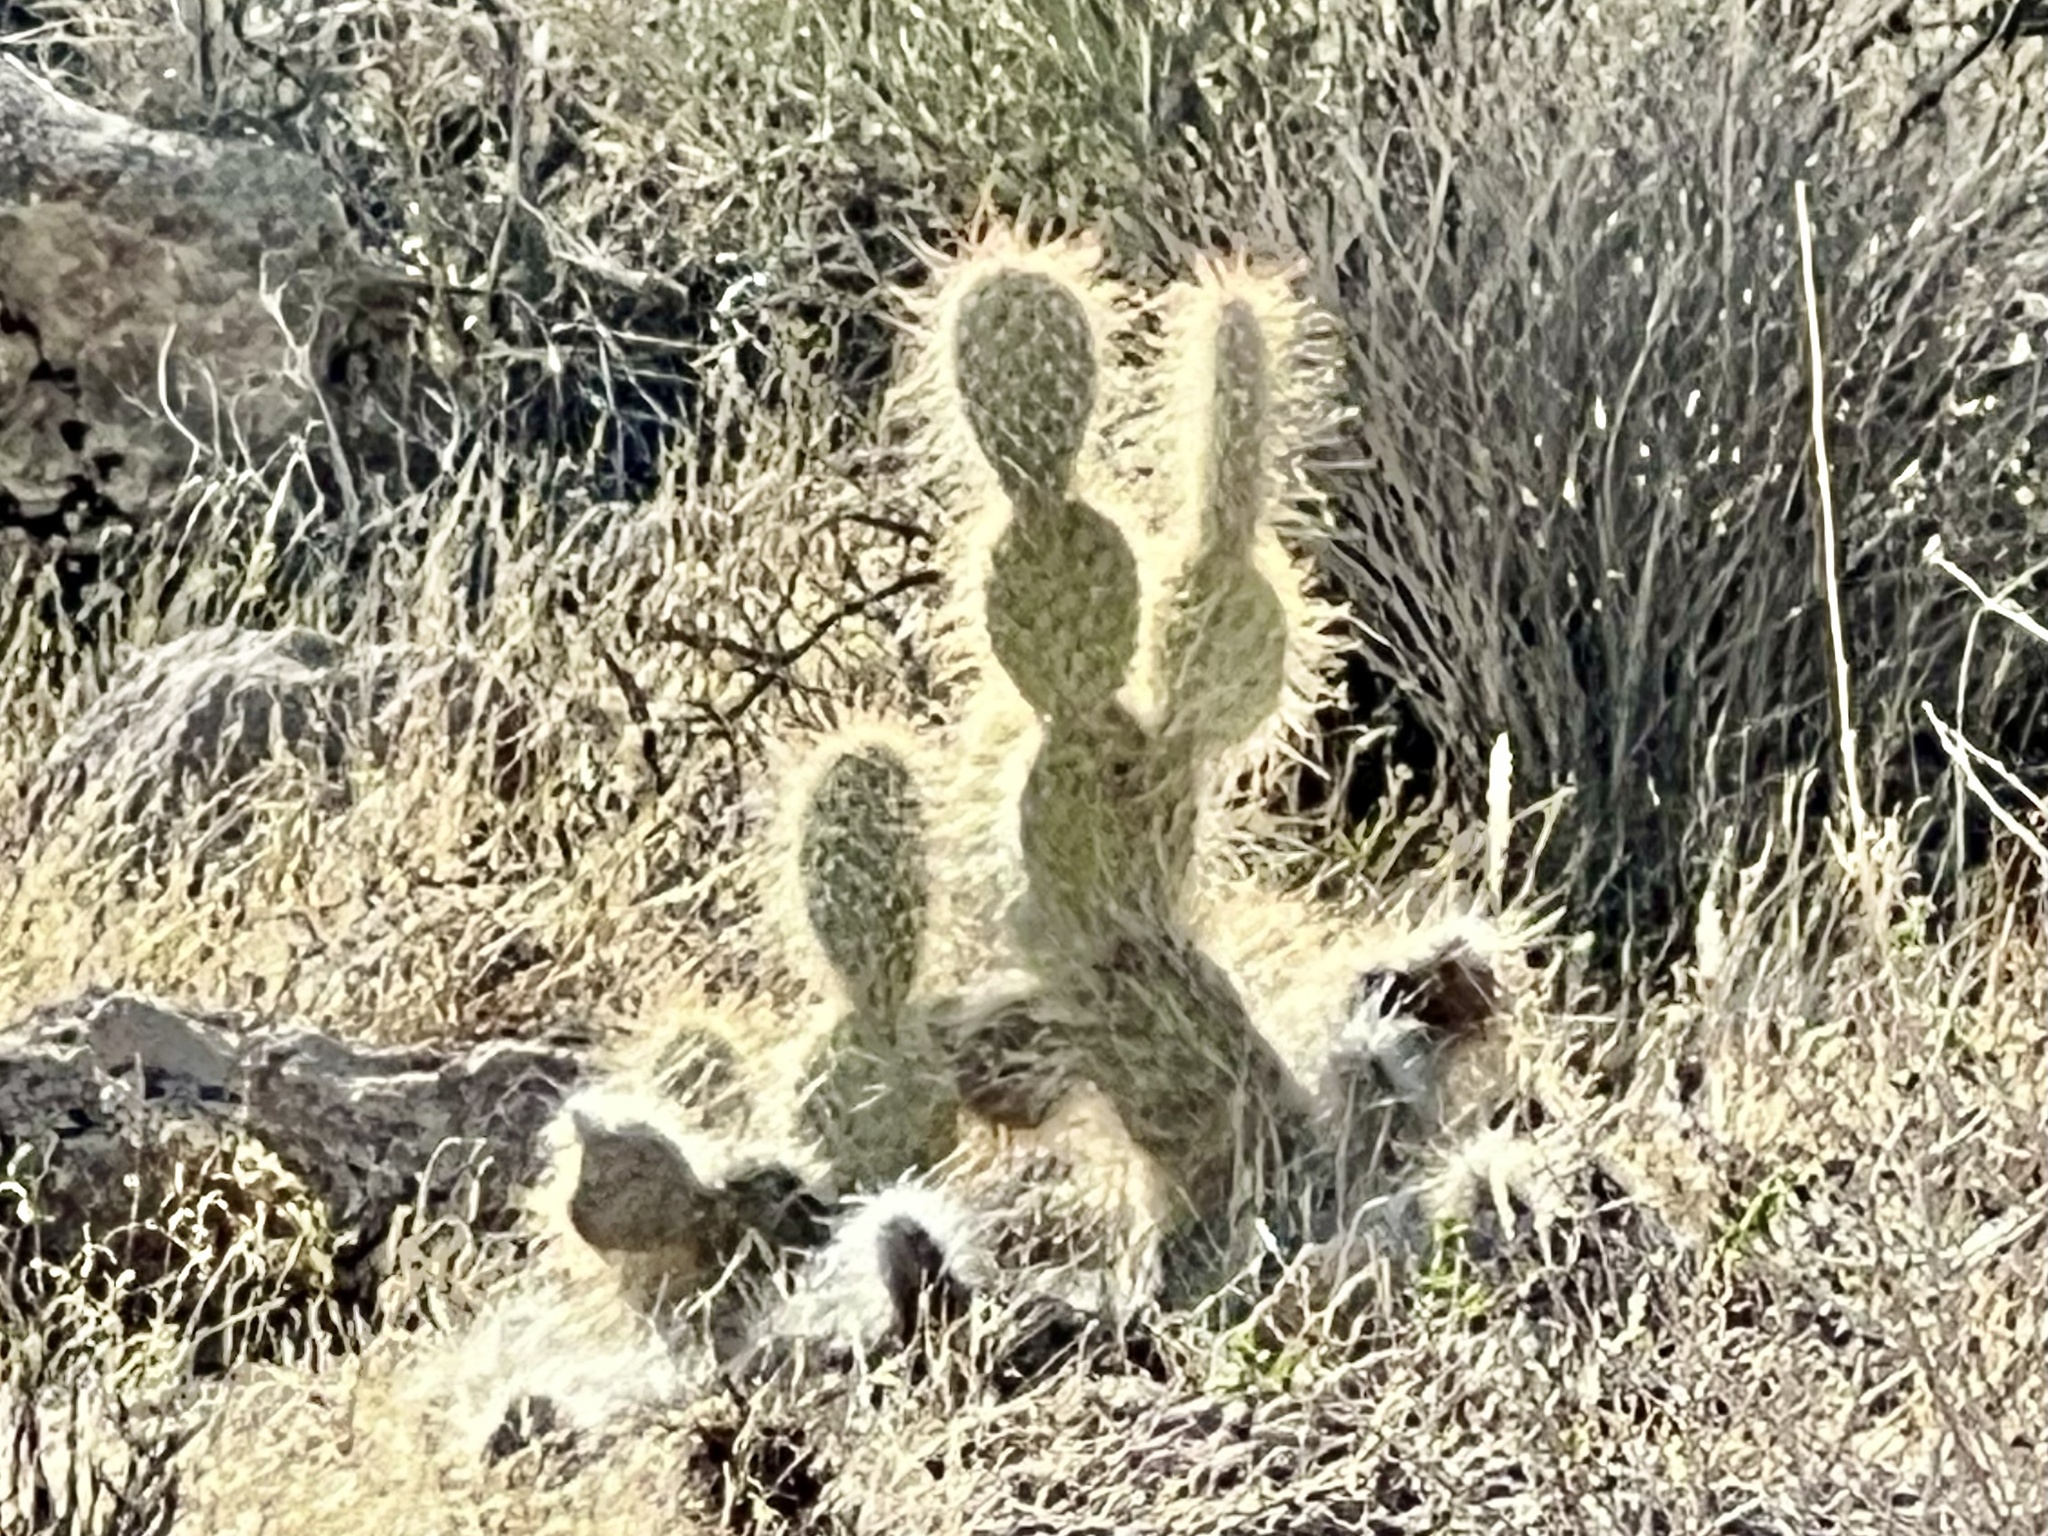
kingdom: Plantae
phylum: Tracheophyta
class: Magnoliopsida
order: Caryophyllales
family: Cactaceae
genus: Opuntia
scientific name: Opuntia polyacantha
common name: Plains prickly-pear
